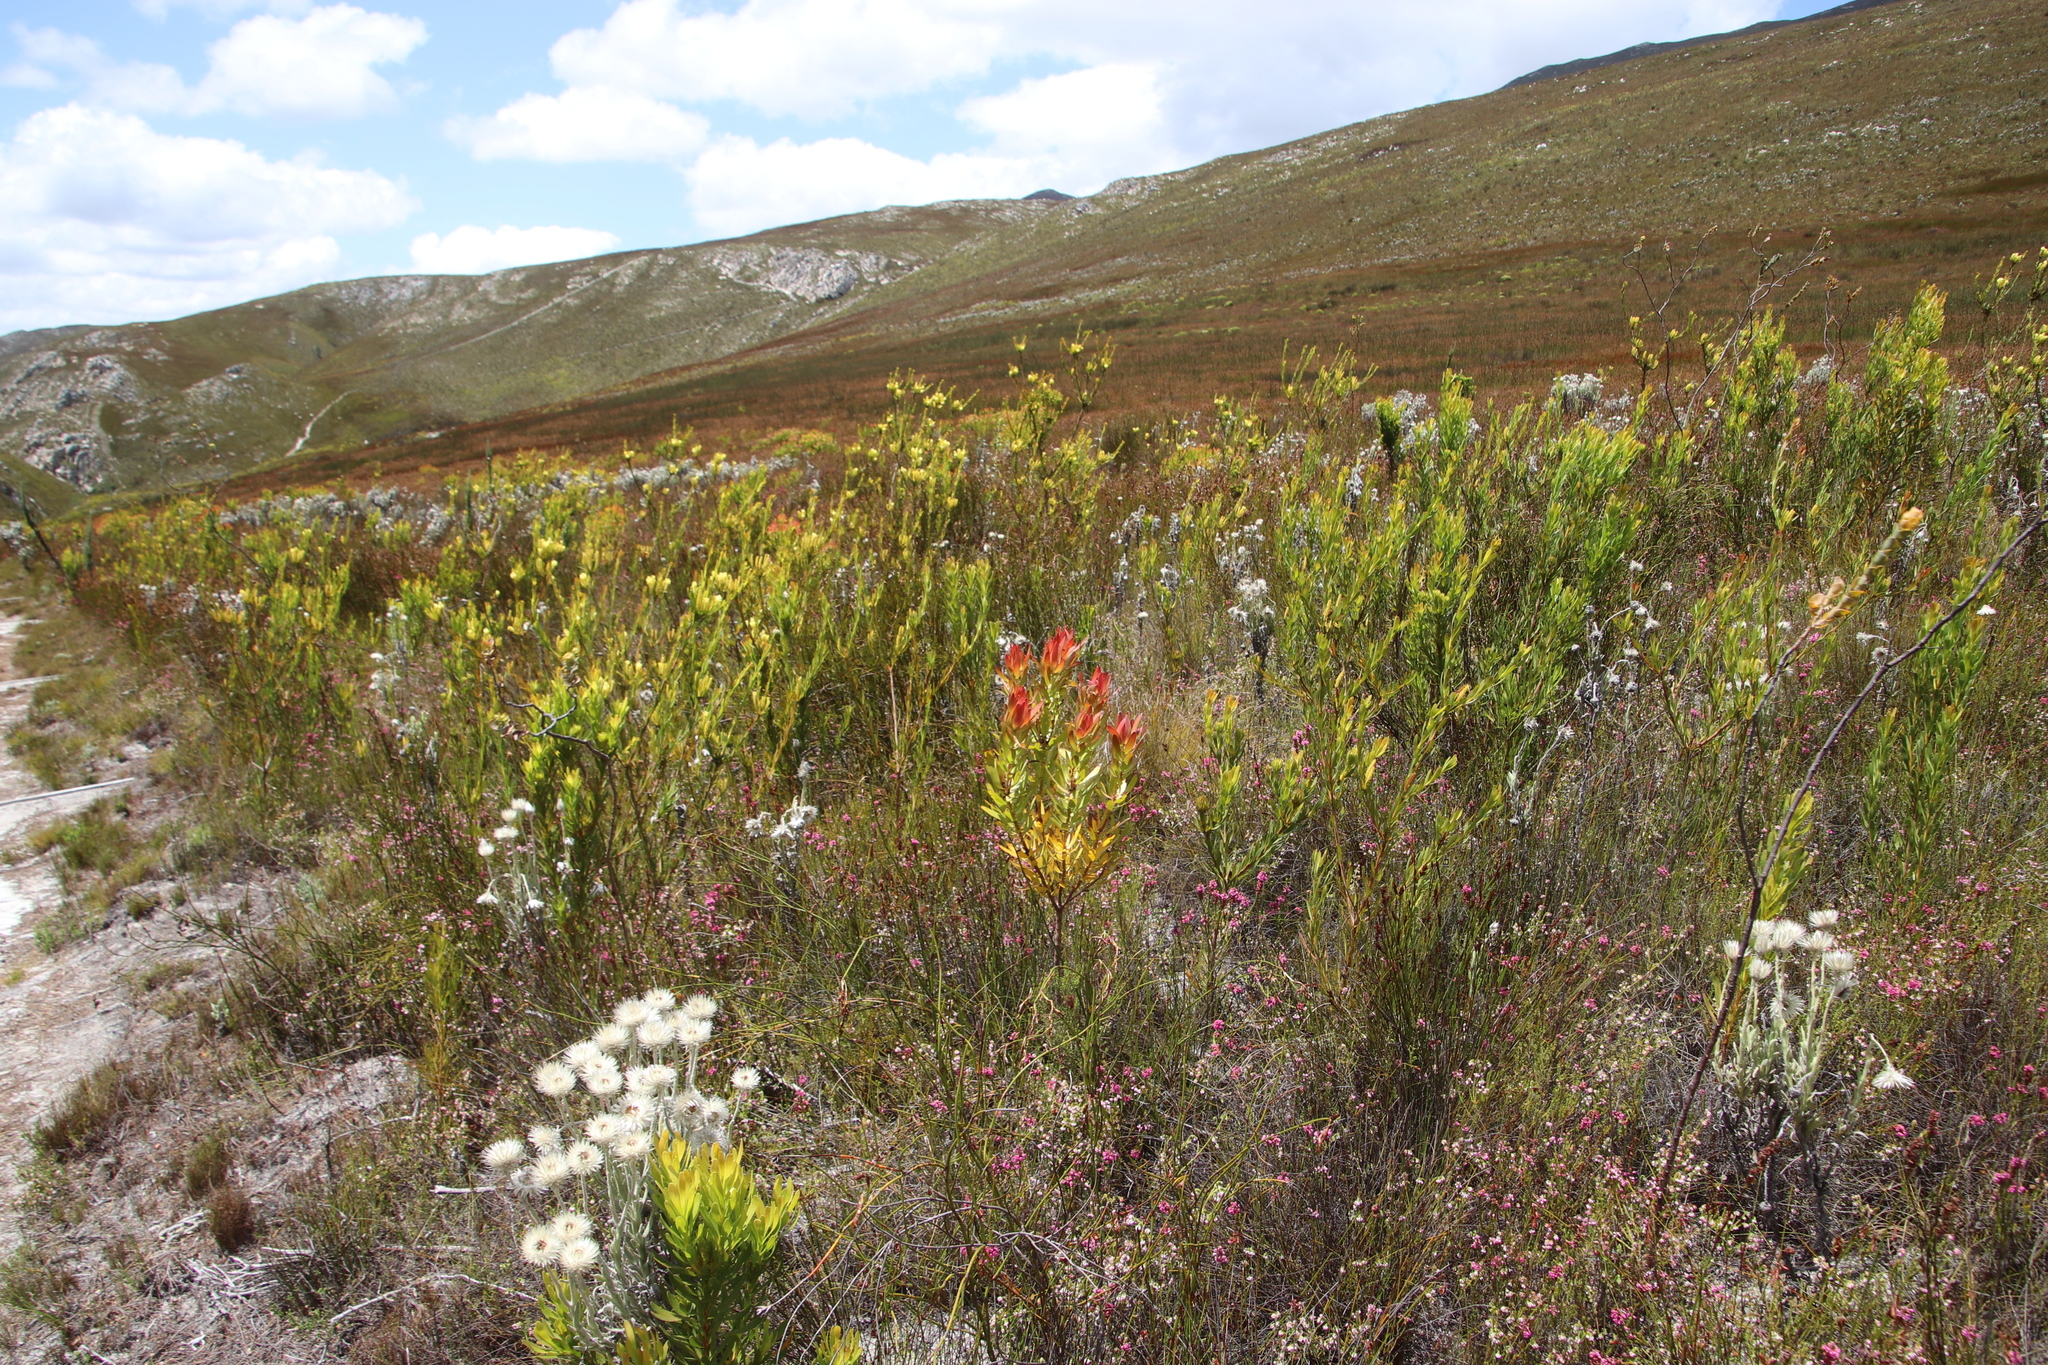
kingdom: Plantae
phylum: Tracheophyta
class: Magnoliopsida
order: Proteales
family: Proteaceae
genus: Leucadendron
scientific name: Leucadendron gandogeri
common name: Broad-leaf conebush
